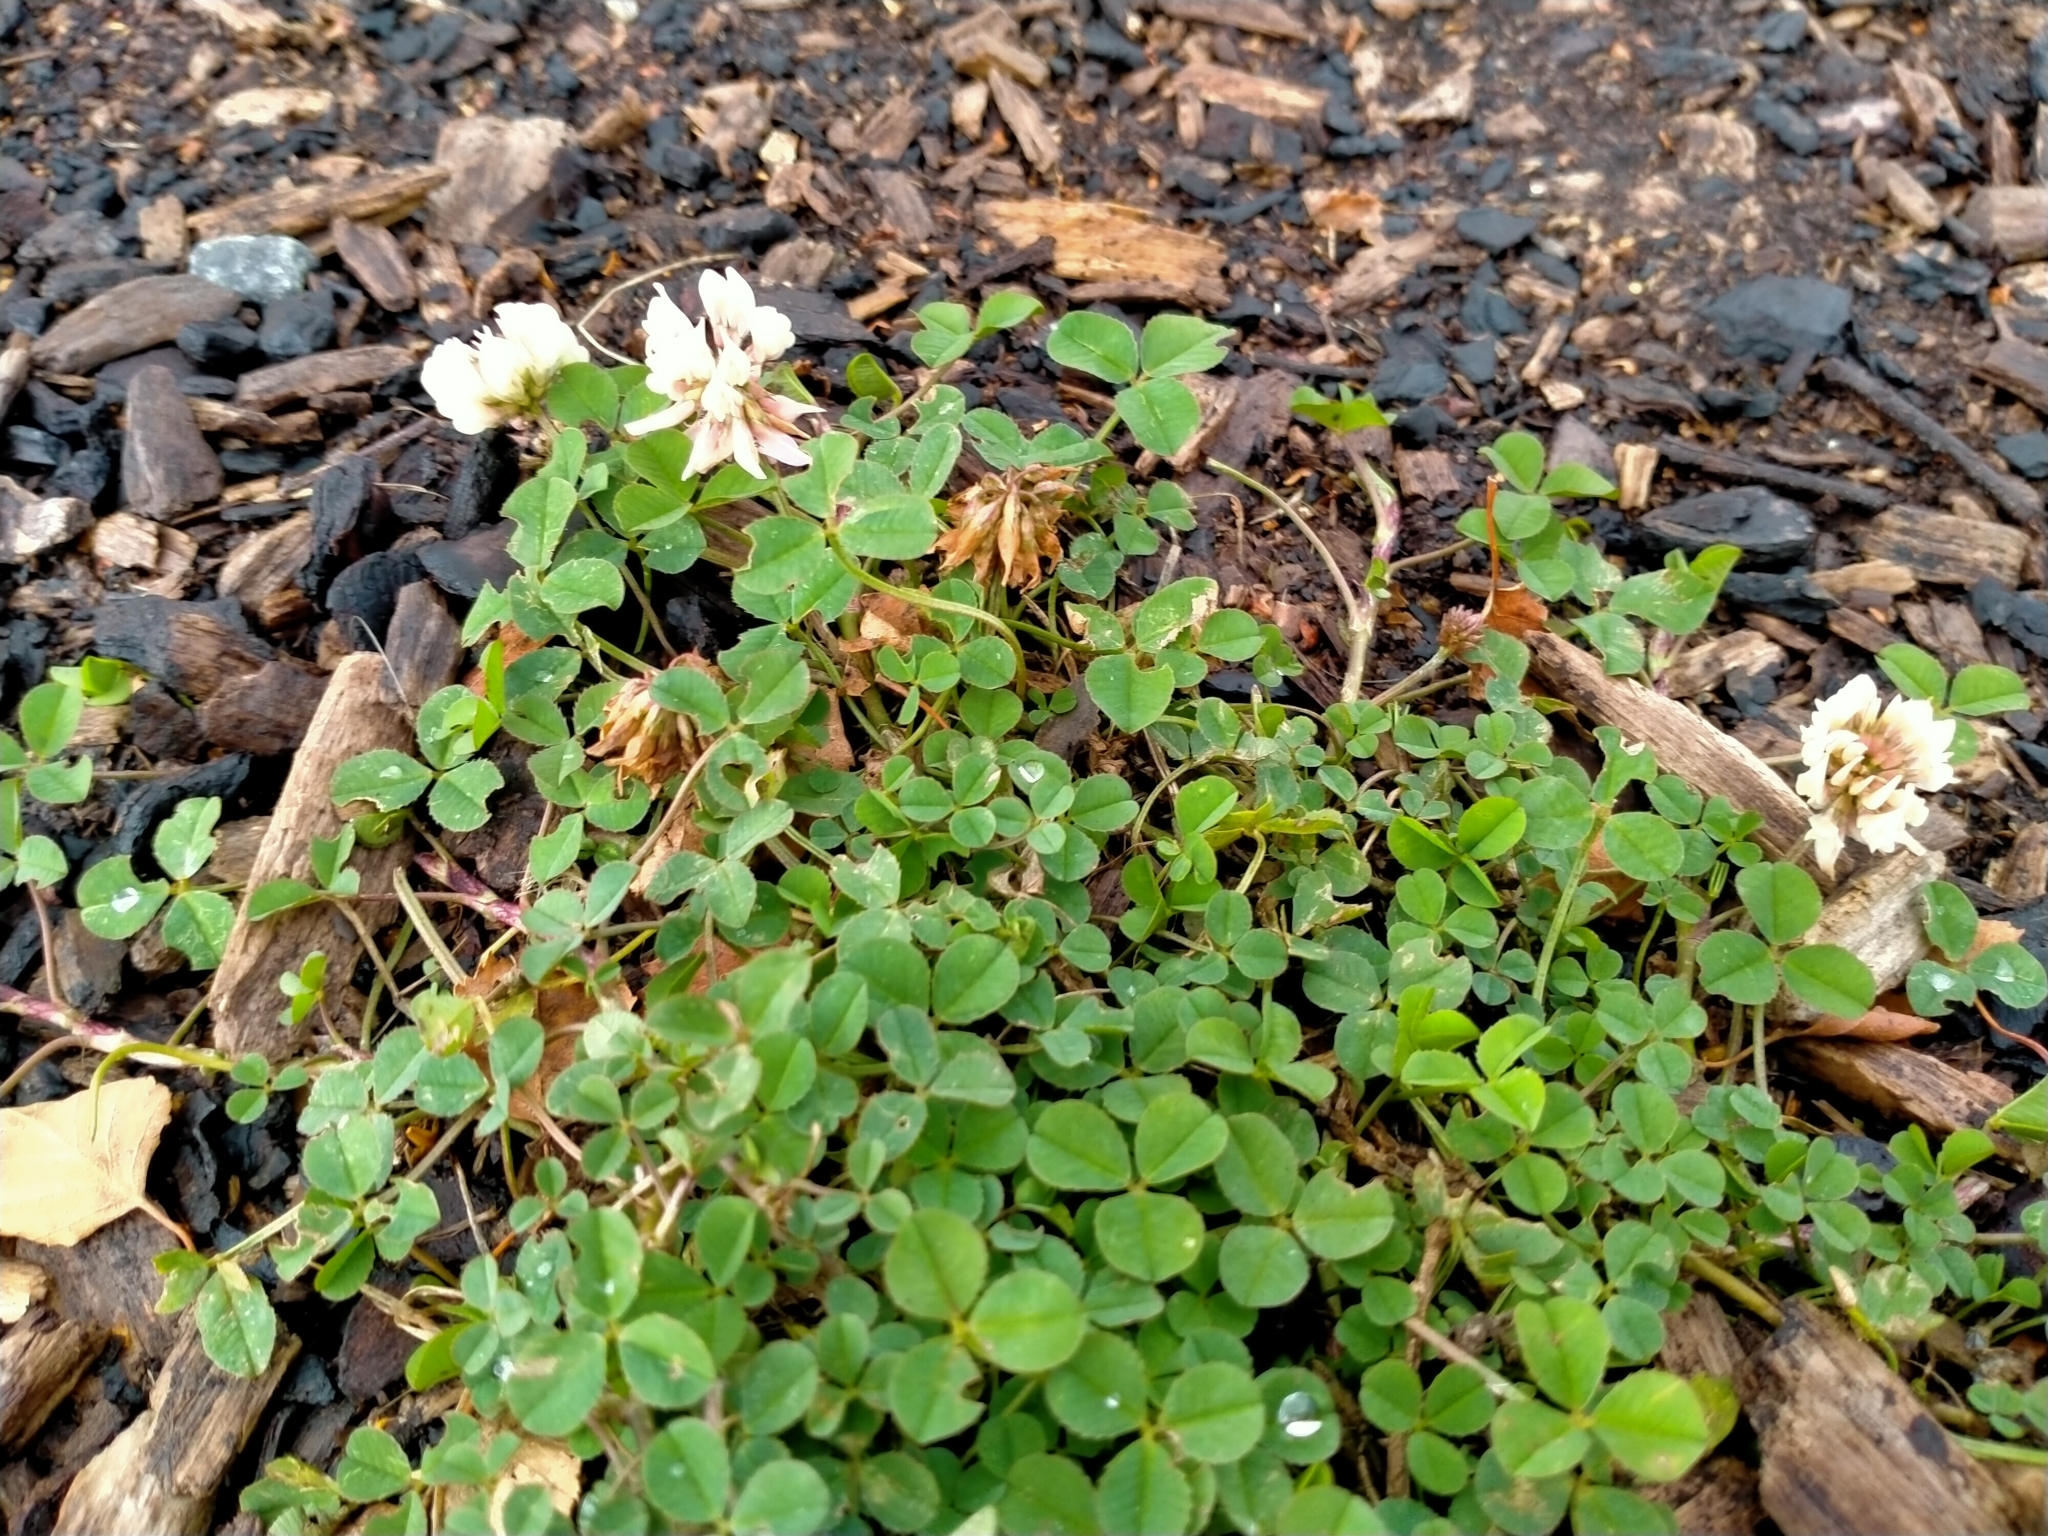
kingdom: Plantae
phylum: Tracheophyta
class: Magnoliopsida
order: Fabales
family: Fabaceae
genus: Trifolium
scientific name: Trifolium repens
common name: White clover
